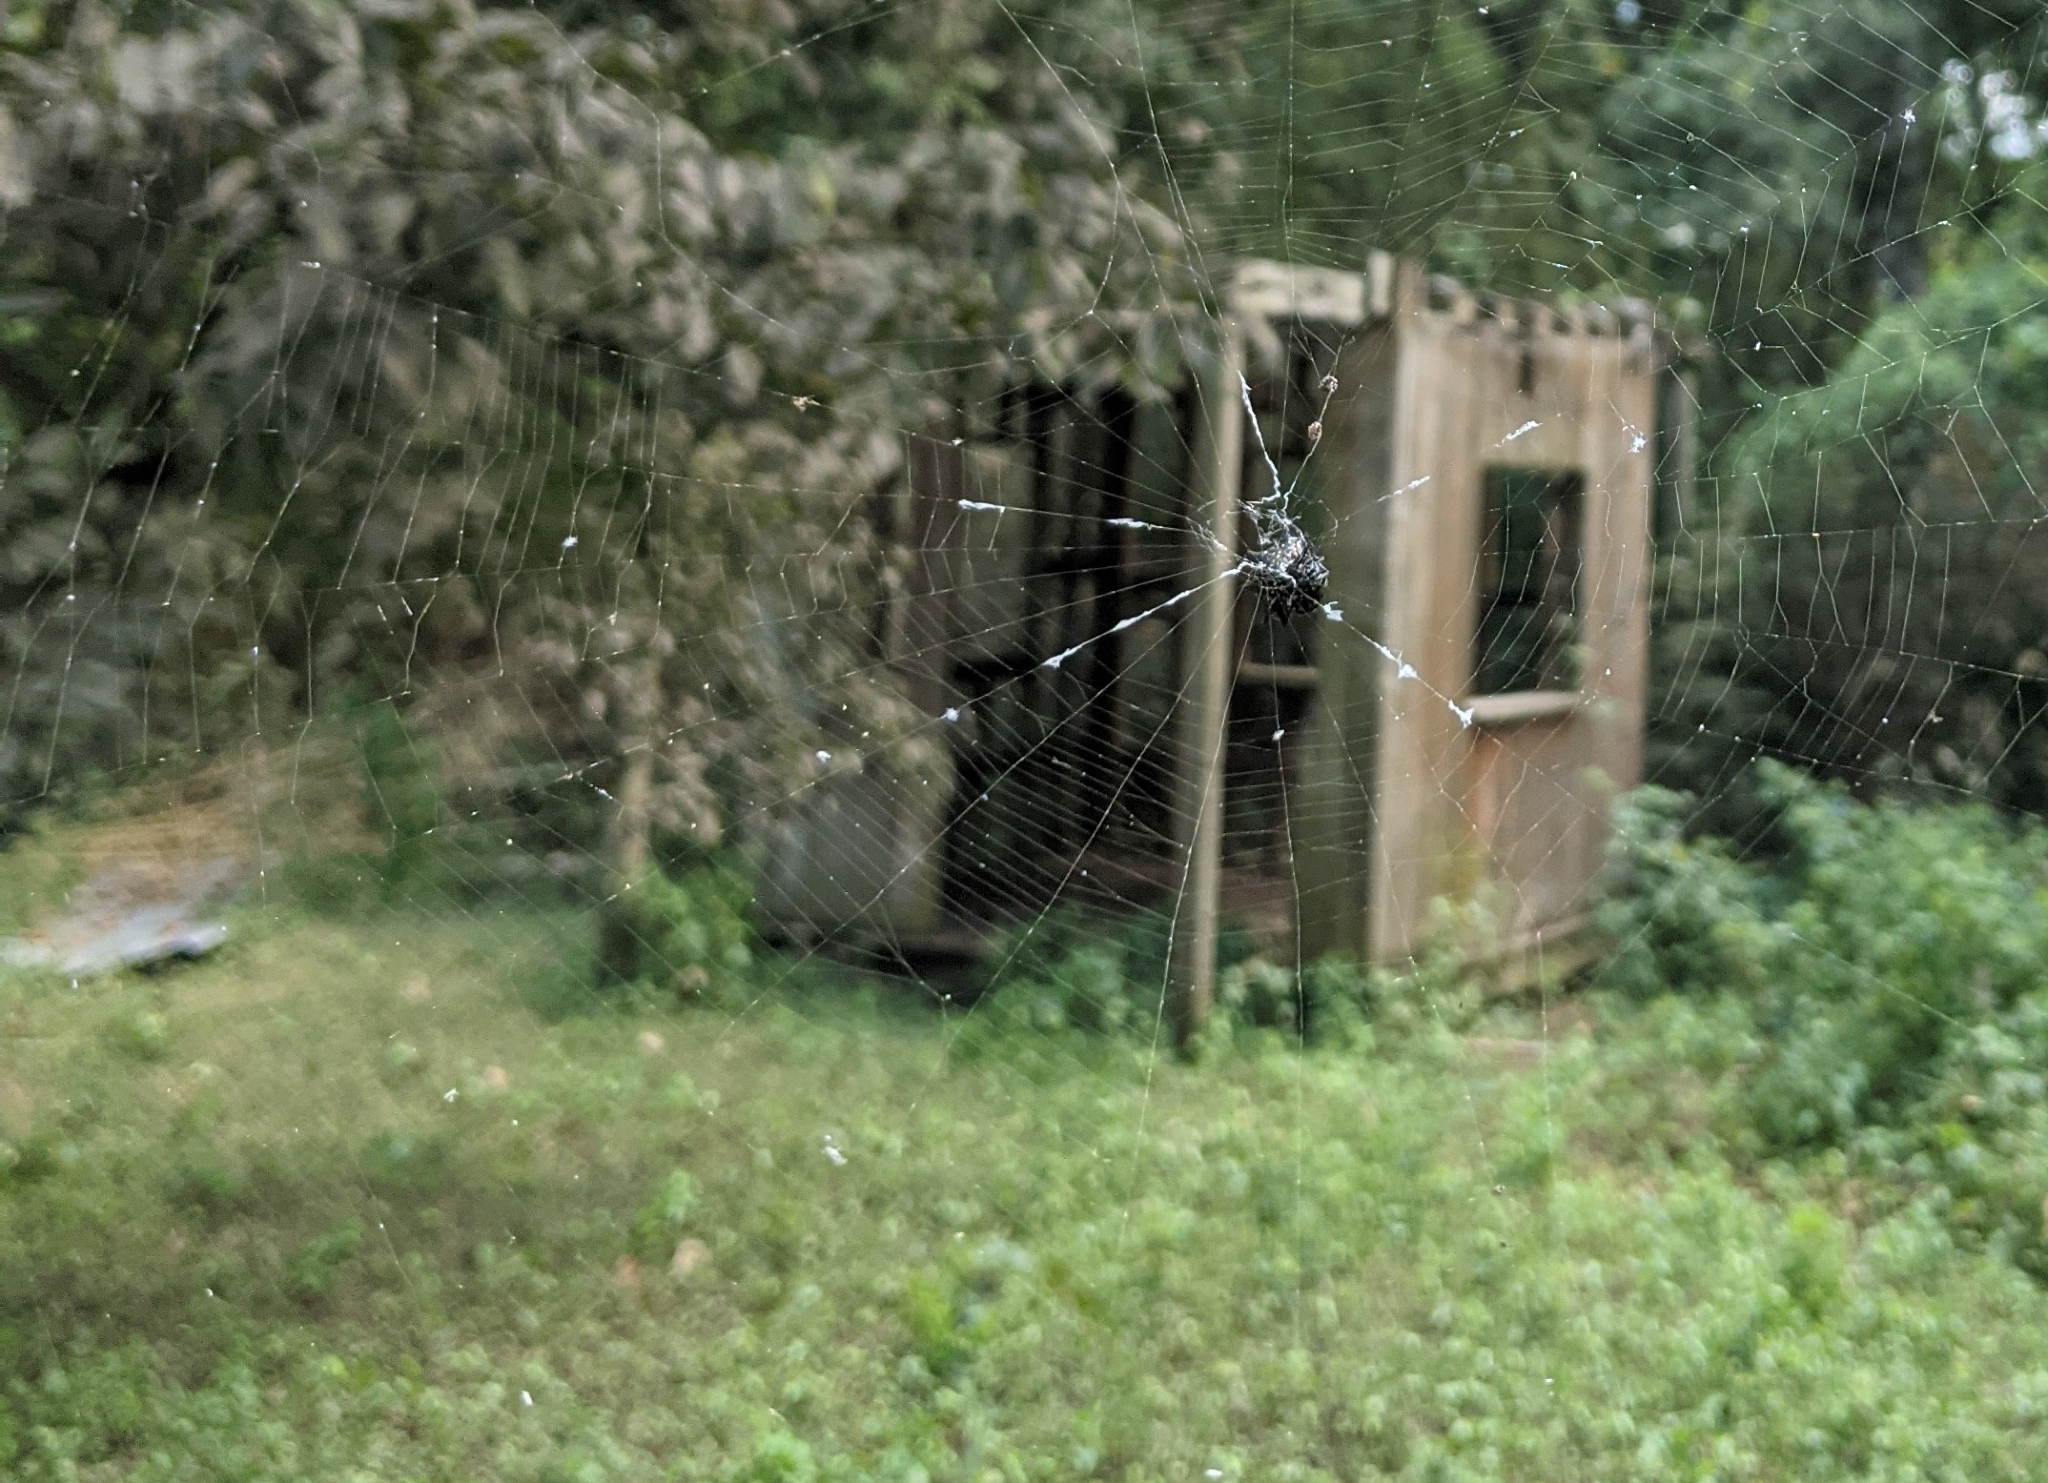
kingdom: Animalia
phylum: Arthropoda
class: Arachnida
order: Araneae
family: Araneidae
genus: Gasteracantha
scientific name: Gasteracantha cancriformis
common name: Orb weavers
